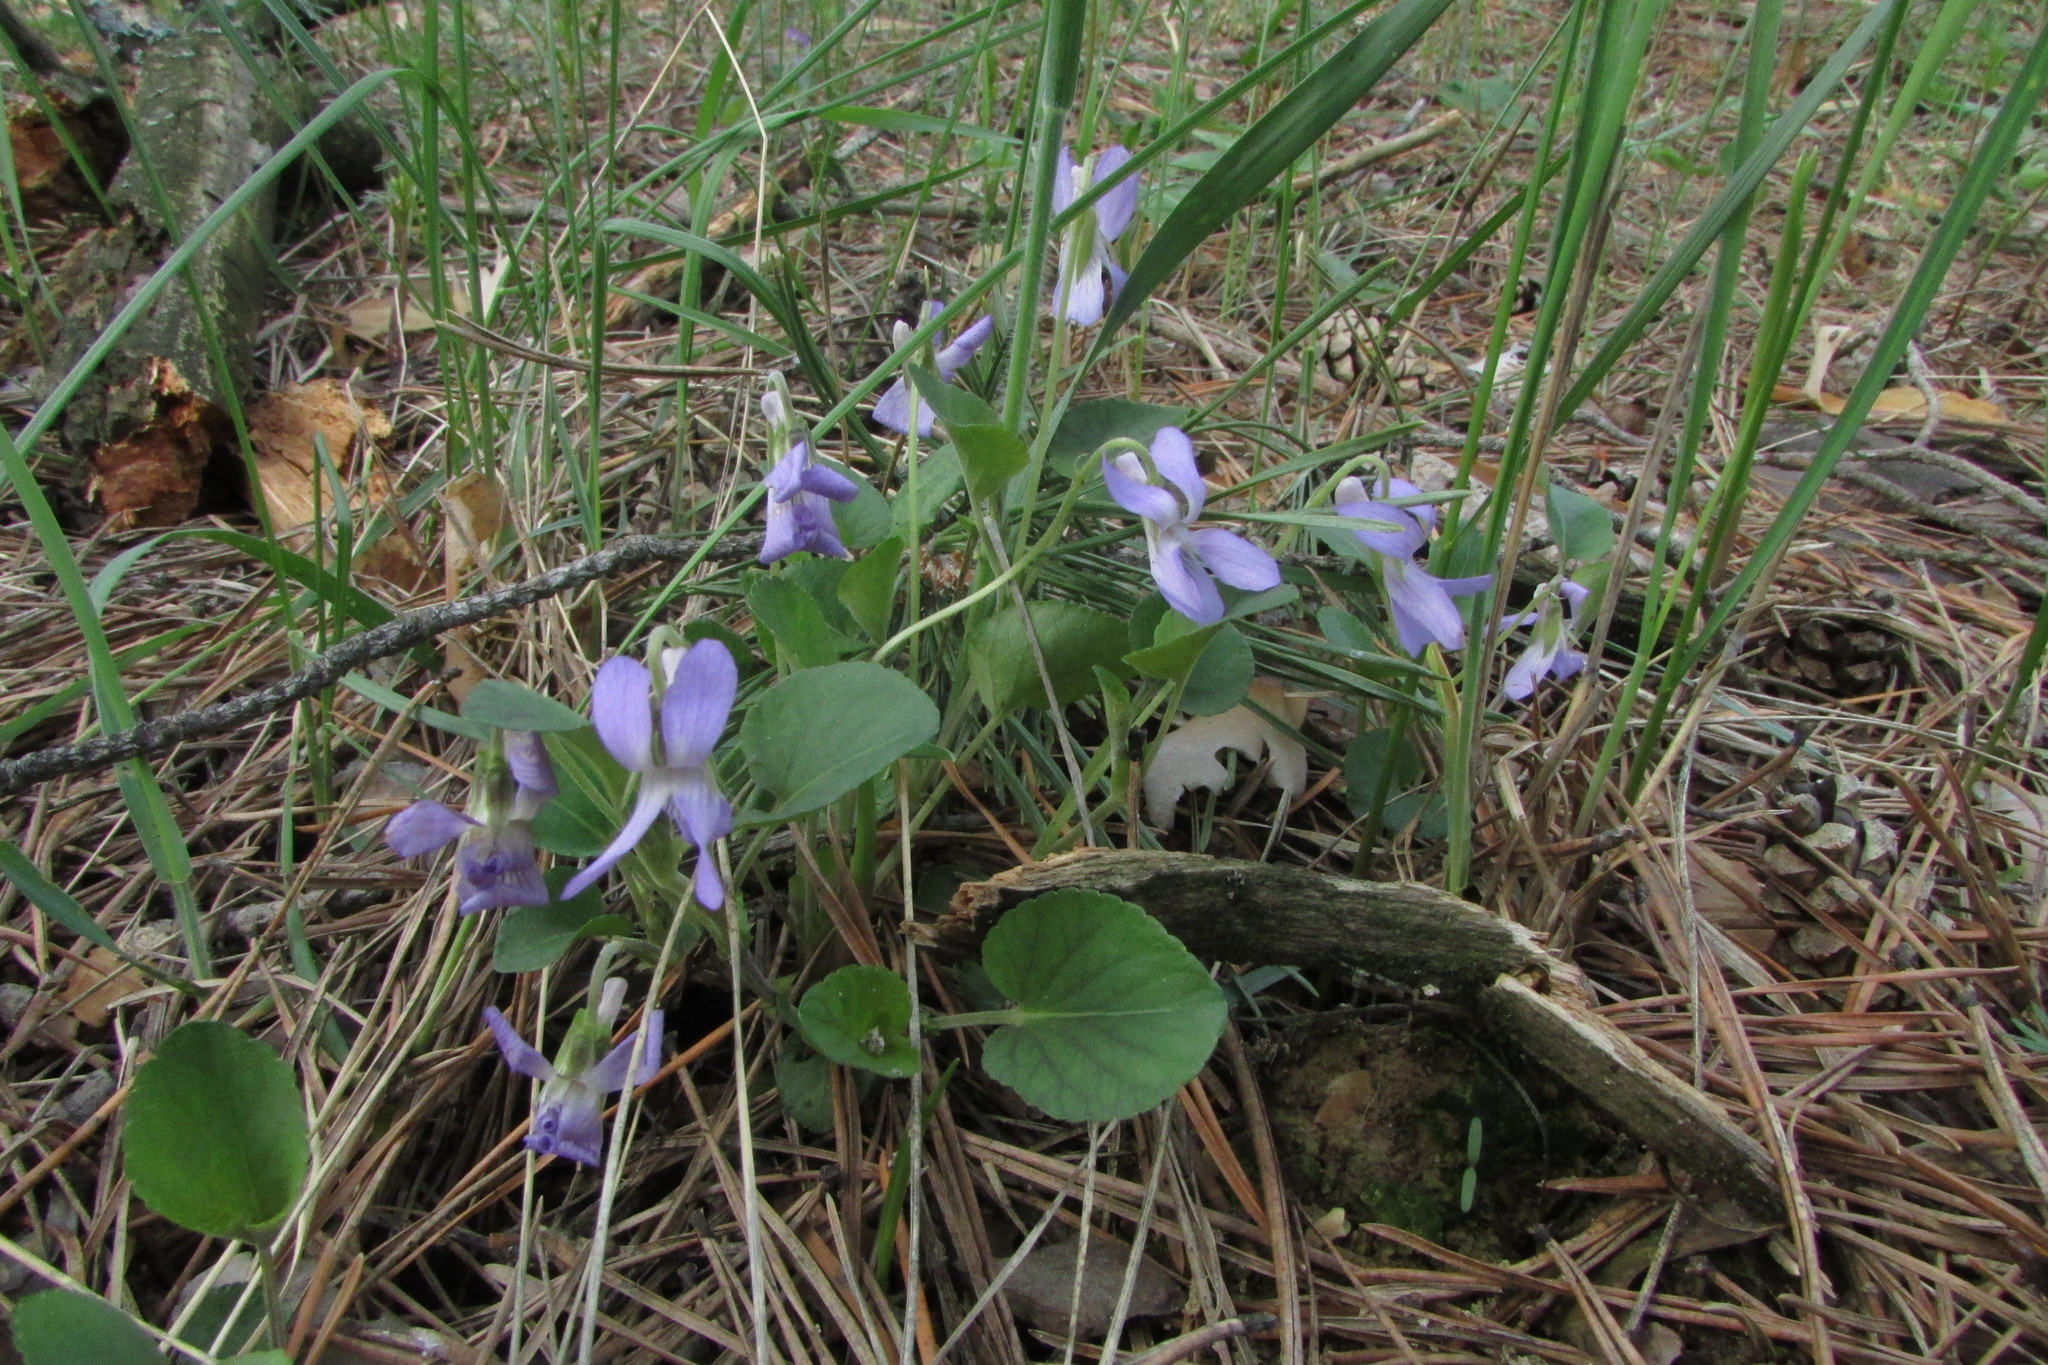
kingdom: Plantae
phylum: Tracheophyta
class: Magnoliopsida
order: Malpighiales
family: Violaceae
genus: Viola
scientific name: Viola rupestris
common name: Teesdale violet
